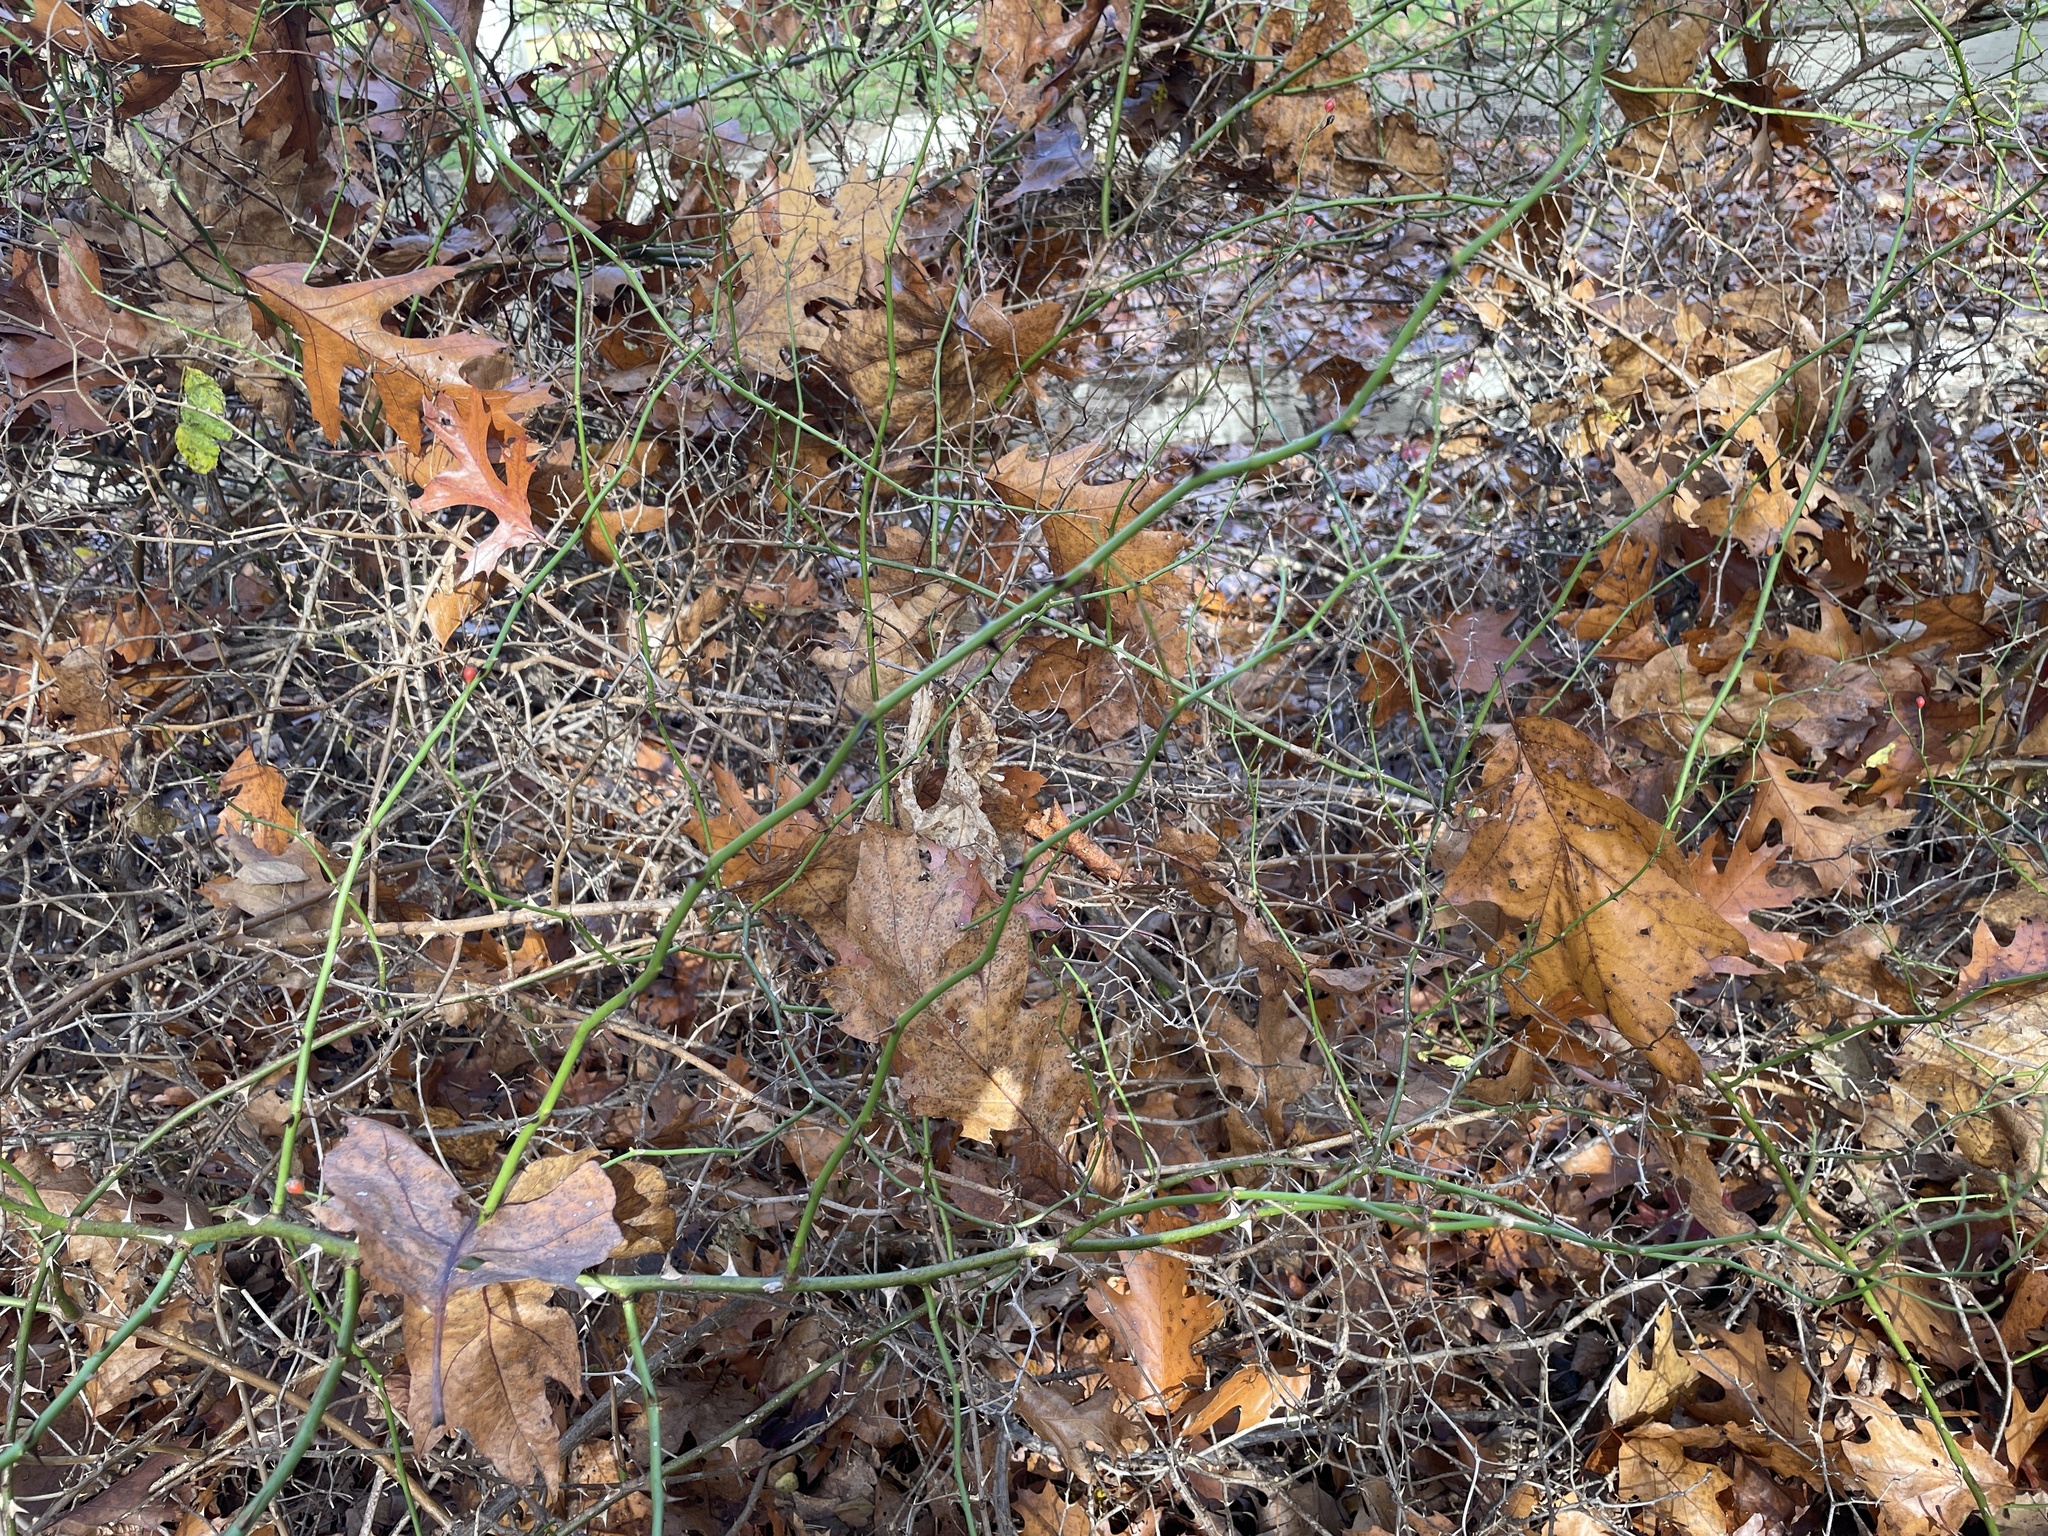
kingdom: Plantae
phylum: Tracheophyta
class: Magnoliopsida
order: Rosales
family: Rosaceae
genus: Rosa
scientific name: Rosa multiflora
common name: Multiflora rose
